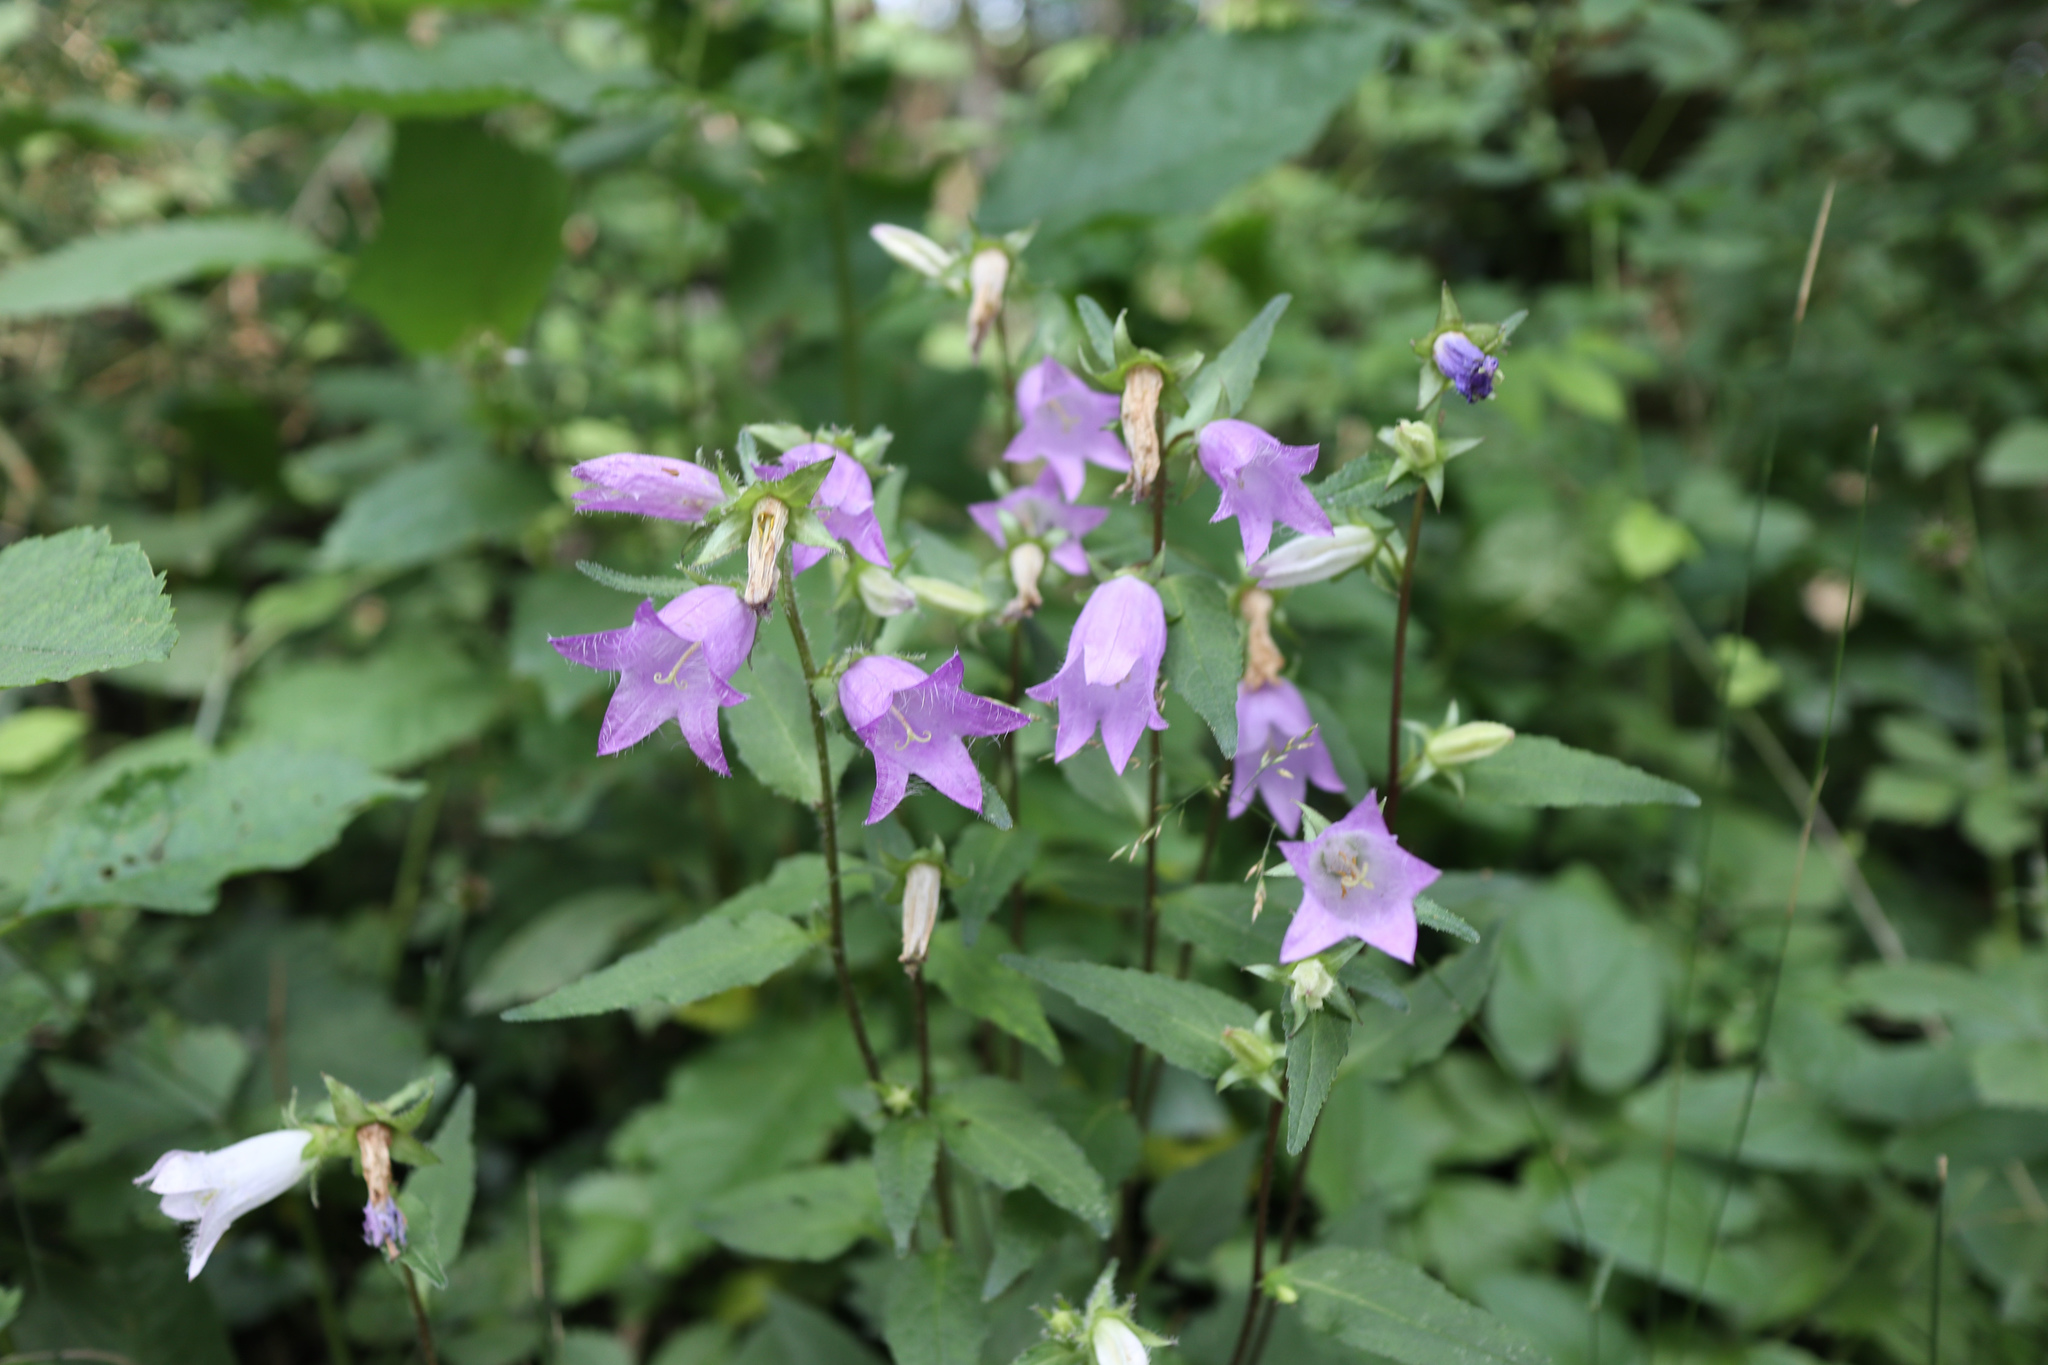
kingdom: Plantae
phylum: Tracheophyta
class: Magnoliopsida
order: Asterales
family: Campanulaceae
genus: Campanula
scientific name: Campanula trachelium
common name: Nettle-leaved bellflower
